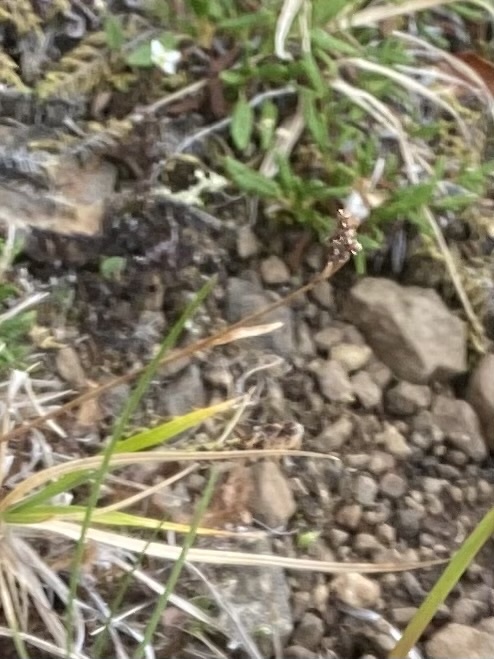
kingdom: Plantae
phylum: Tracheophyta
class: Liliopsida
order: Poales
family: Cyperaceae
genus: Carex
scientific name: Carex bigelowii
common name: Stiff sedge
